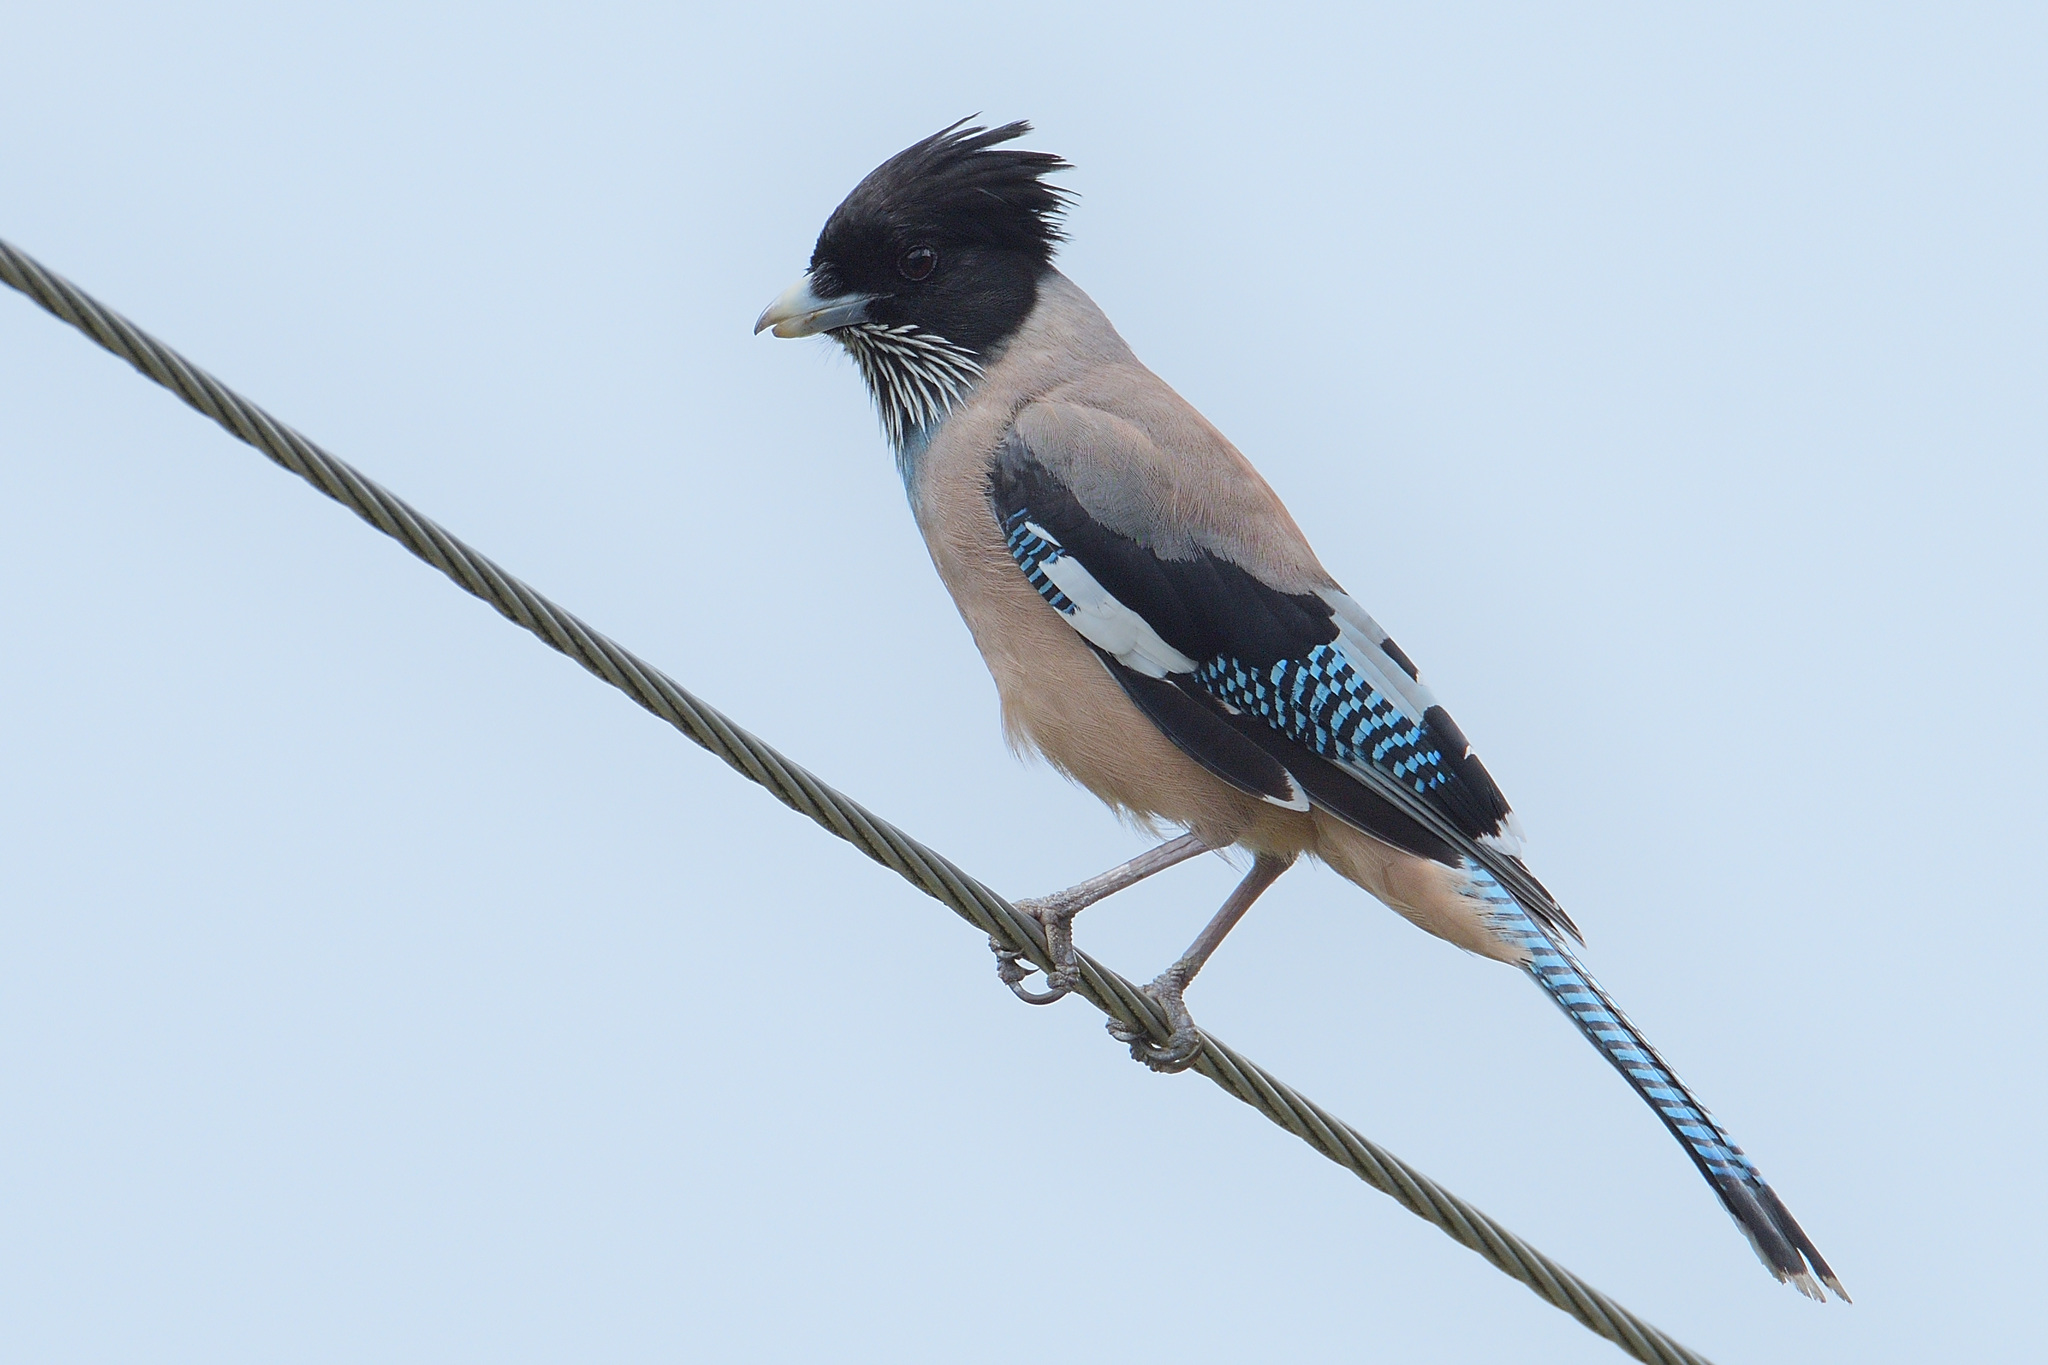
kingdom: Animalia
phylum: Chordata
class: Aves
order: Passeriformes
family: Corvidae
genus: Garrulus
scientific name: Garrulus lanceolatus
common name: Black-headed jay
